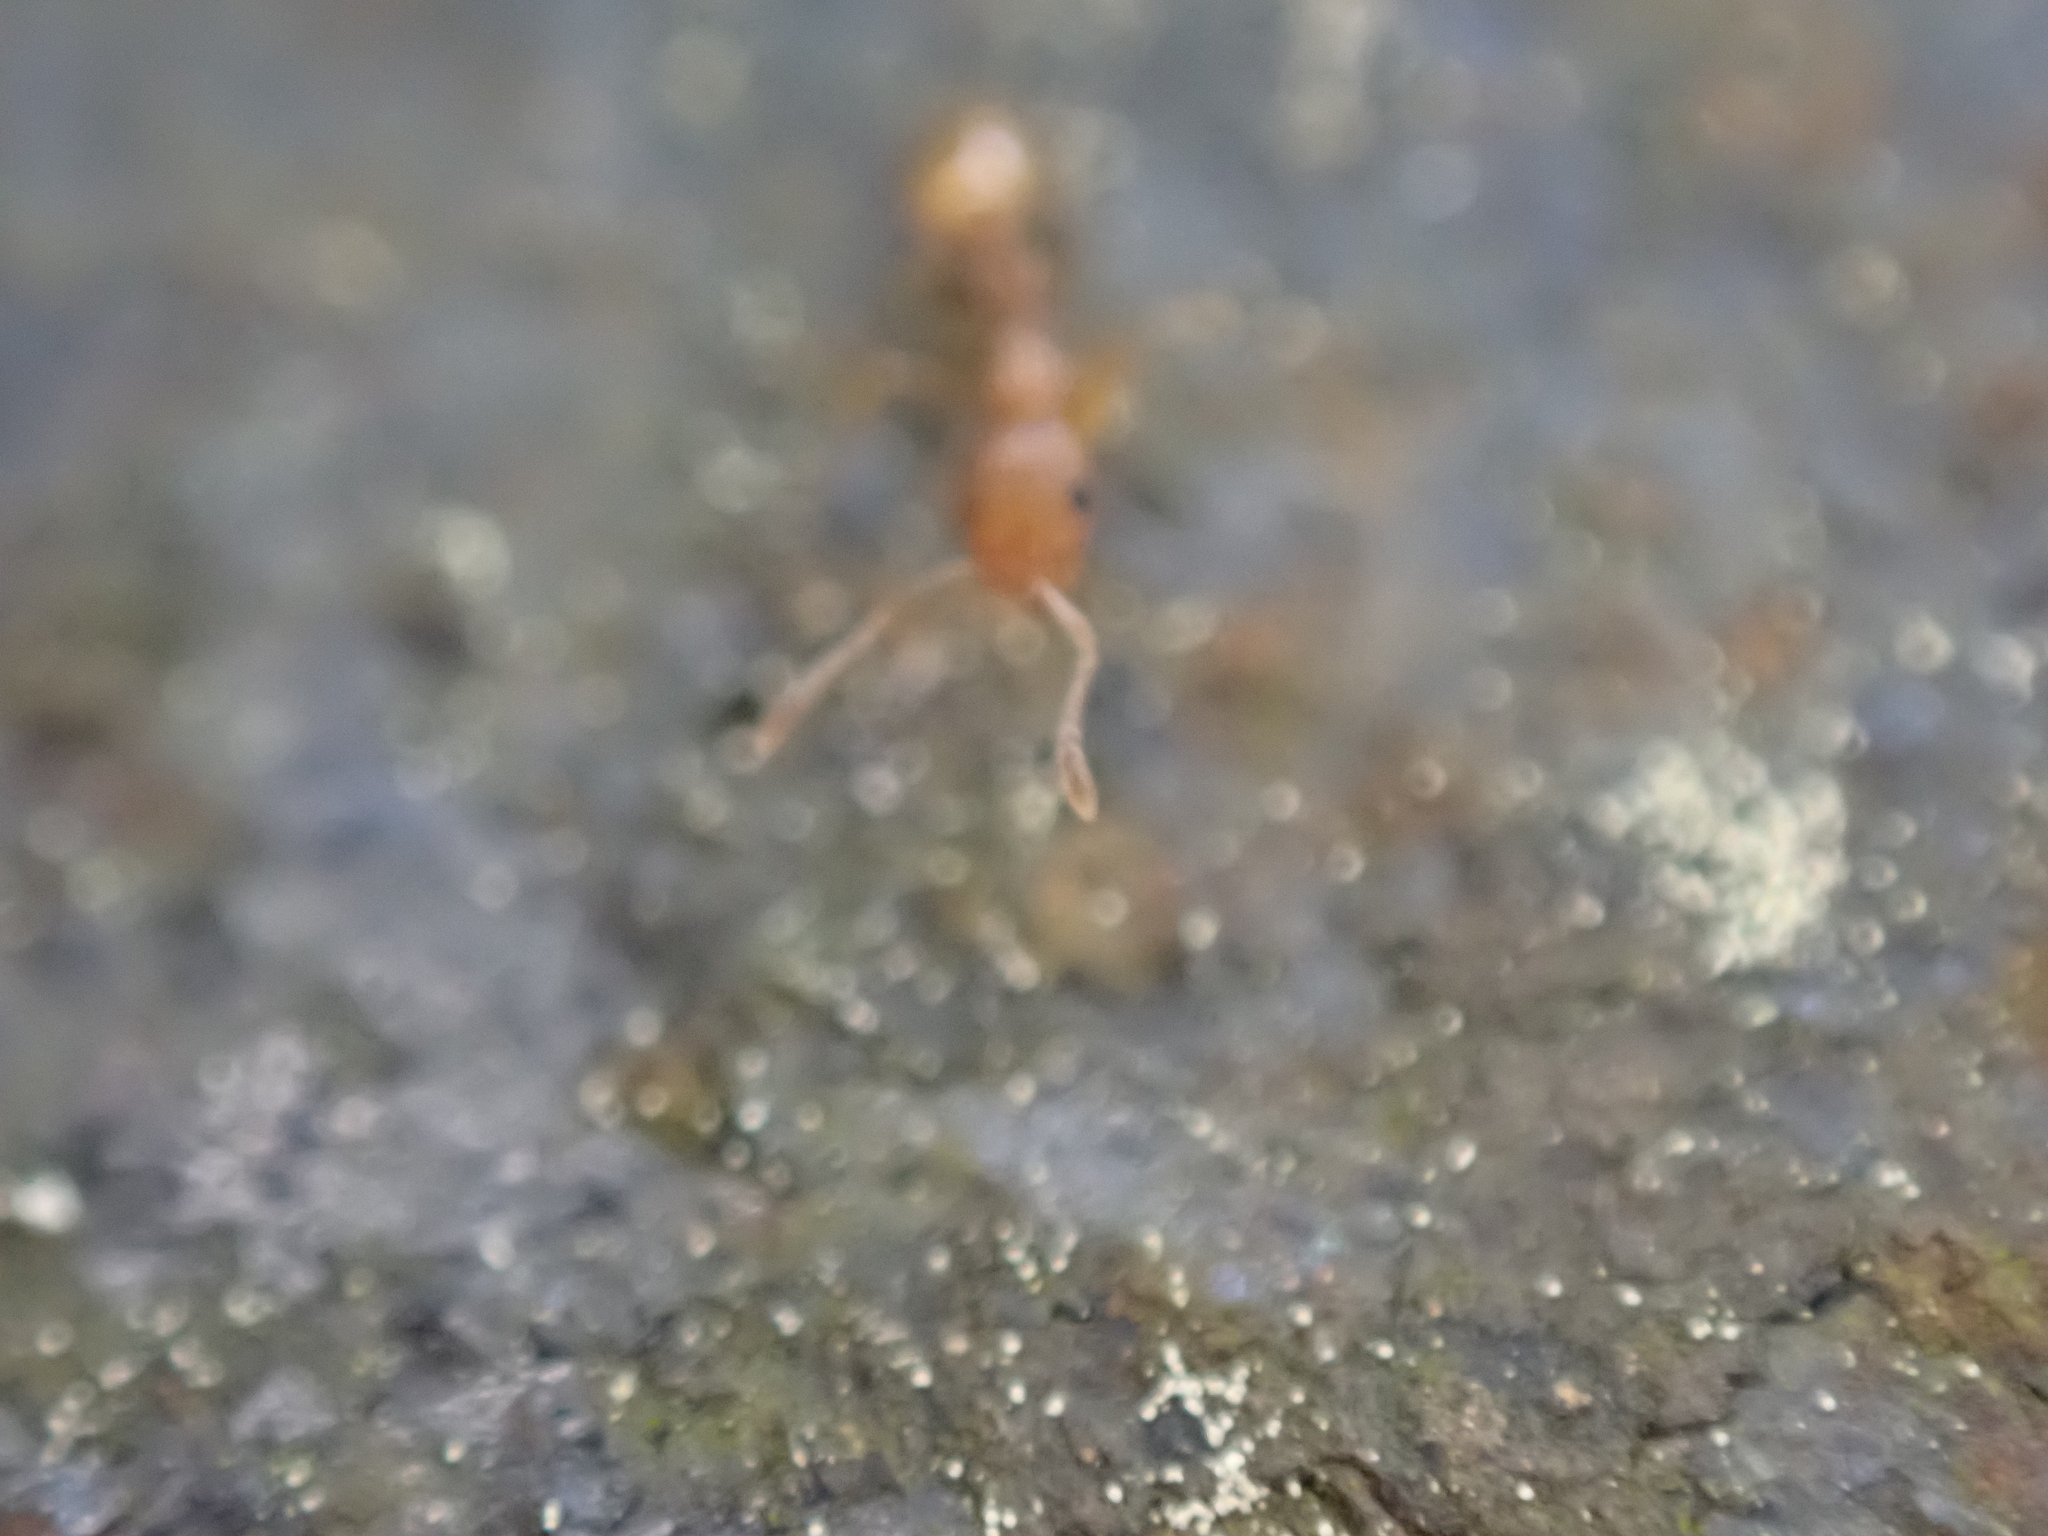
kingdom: Animalia
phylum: Arthropoda
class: Insecta
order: Hymenoptera
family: Formicidae
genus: Temnothorax
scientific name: Temnothorax curvispinosus
